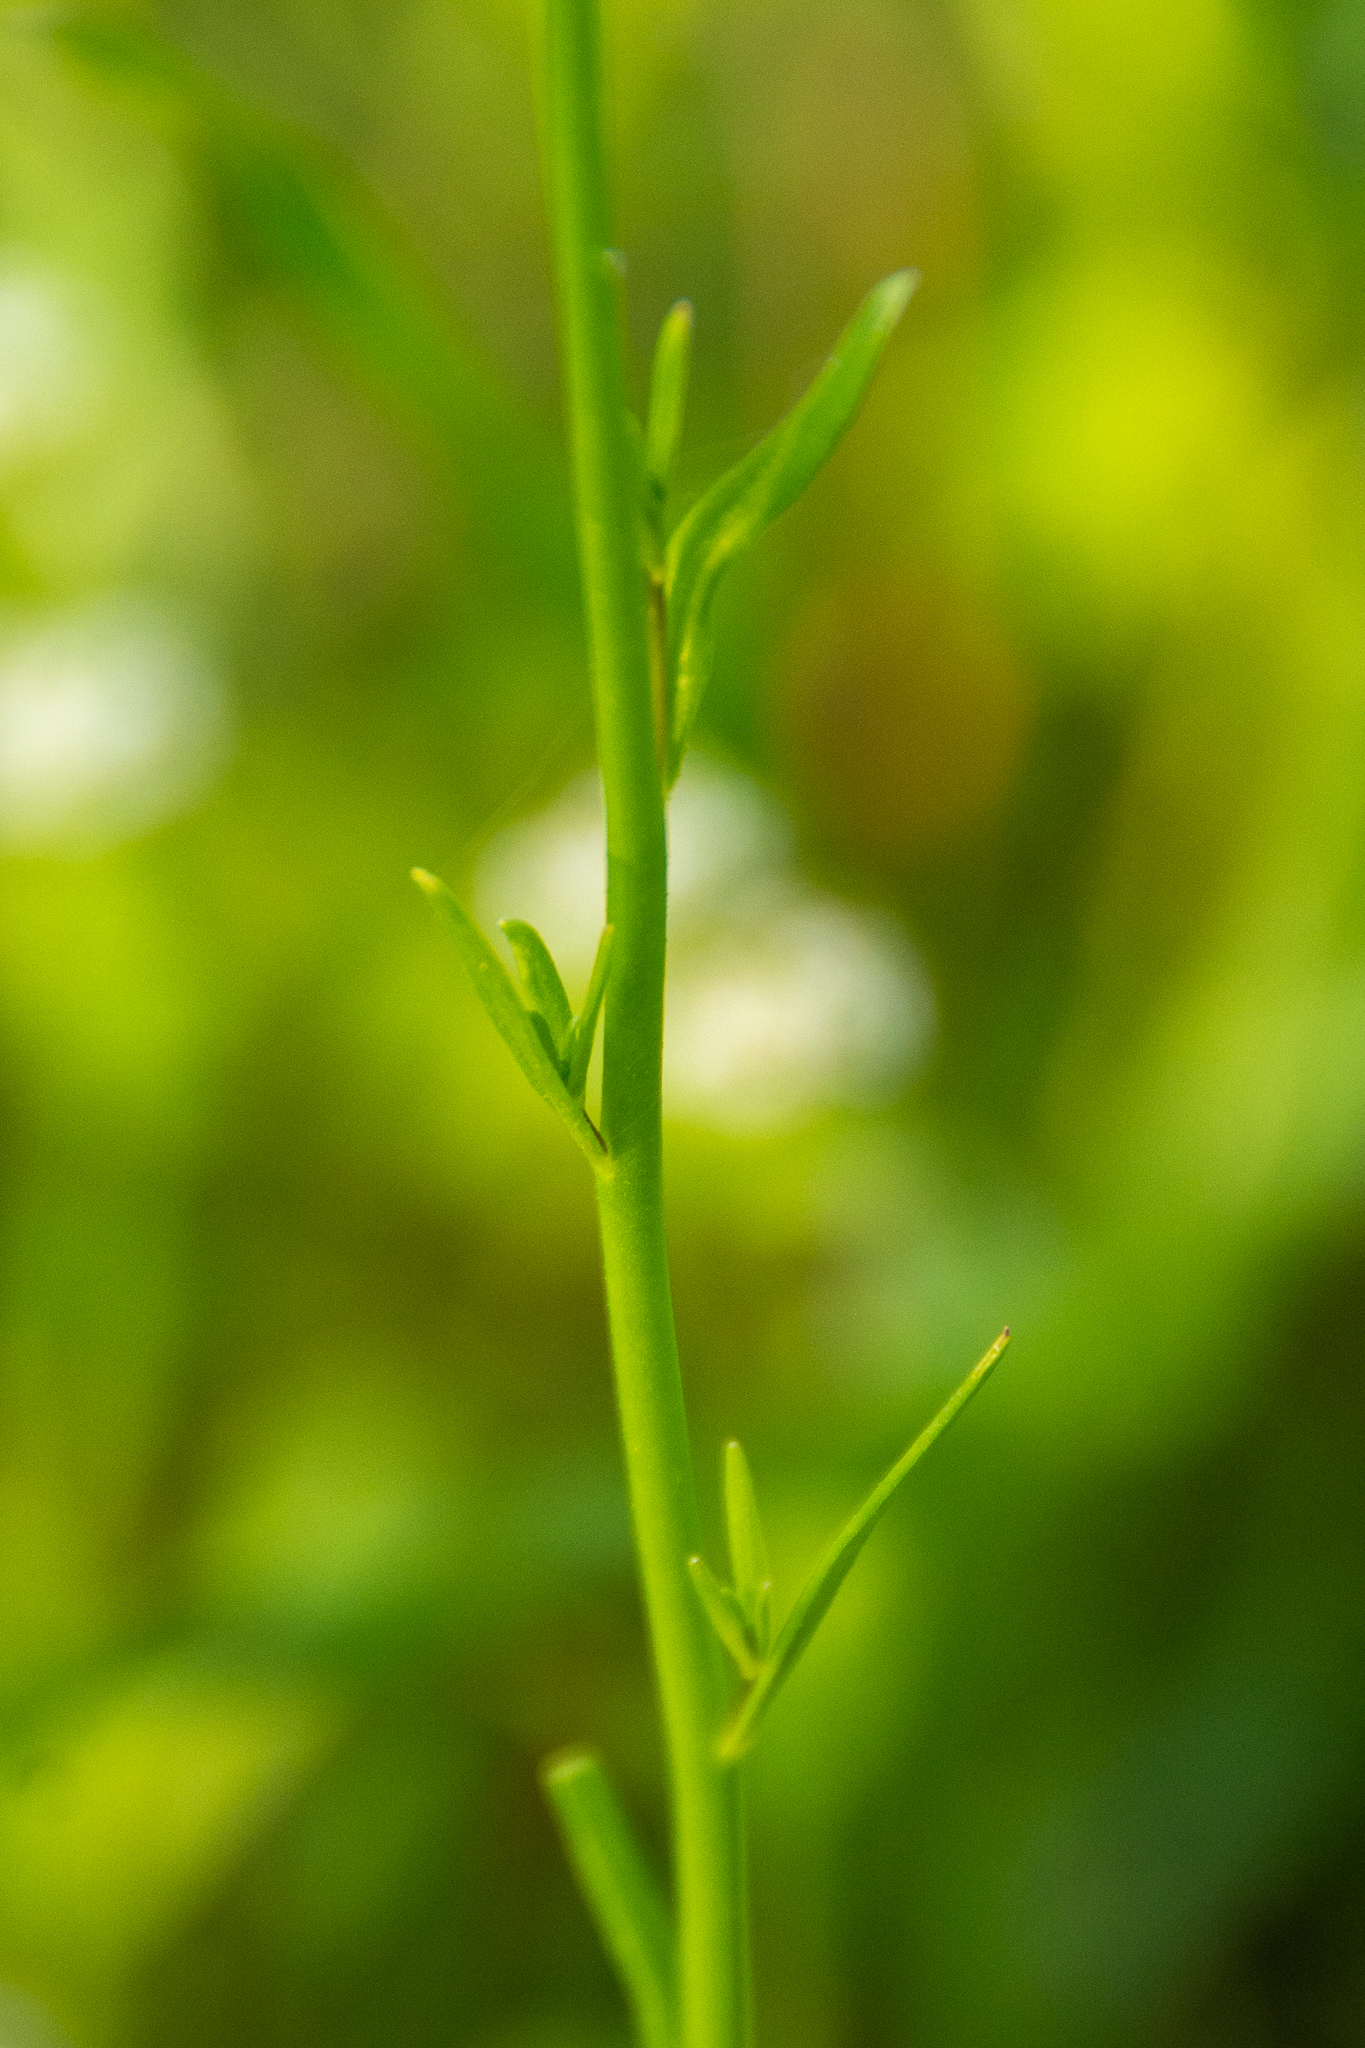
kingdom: Plantae
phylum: Tracheophyta
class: Magnoliopsida
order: Lamiales
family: Plantaginaceae
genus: Nuttallanthus
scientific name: Nuttallanthus texanus
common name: Texas toadflax
